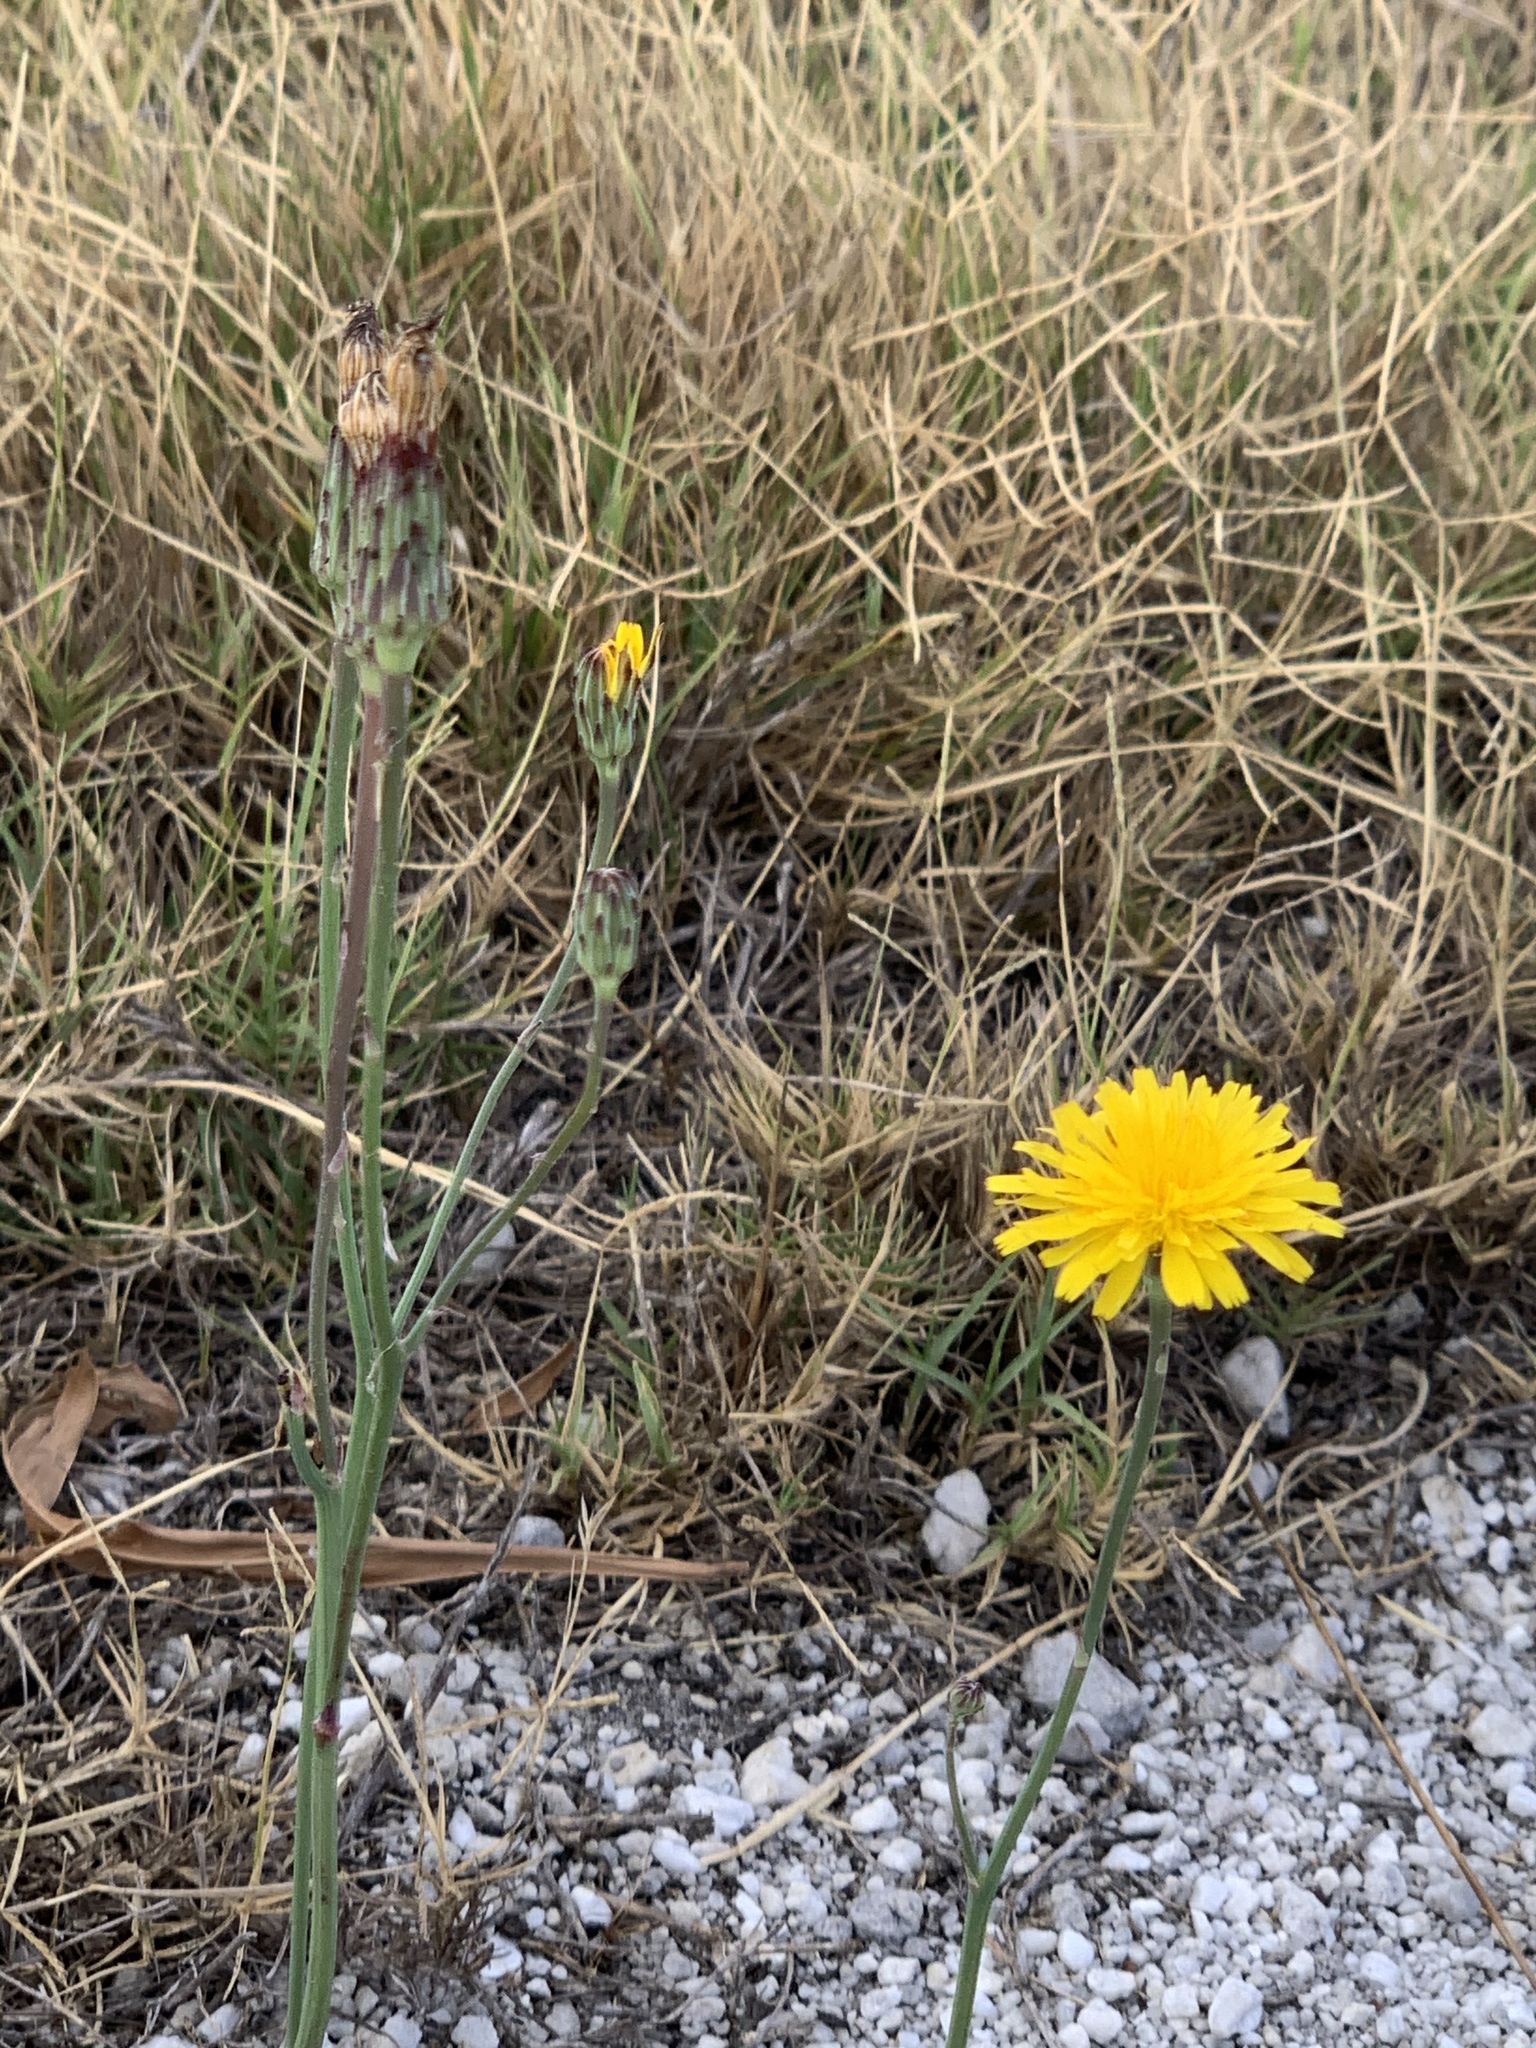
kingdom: Plantae
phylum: Tracheophyta
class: Magnoliopsida
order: Asterales
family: Asteraceae
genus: Hypochaeris
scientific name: Hypochaeris radicata
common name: Flatweed
